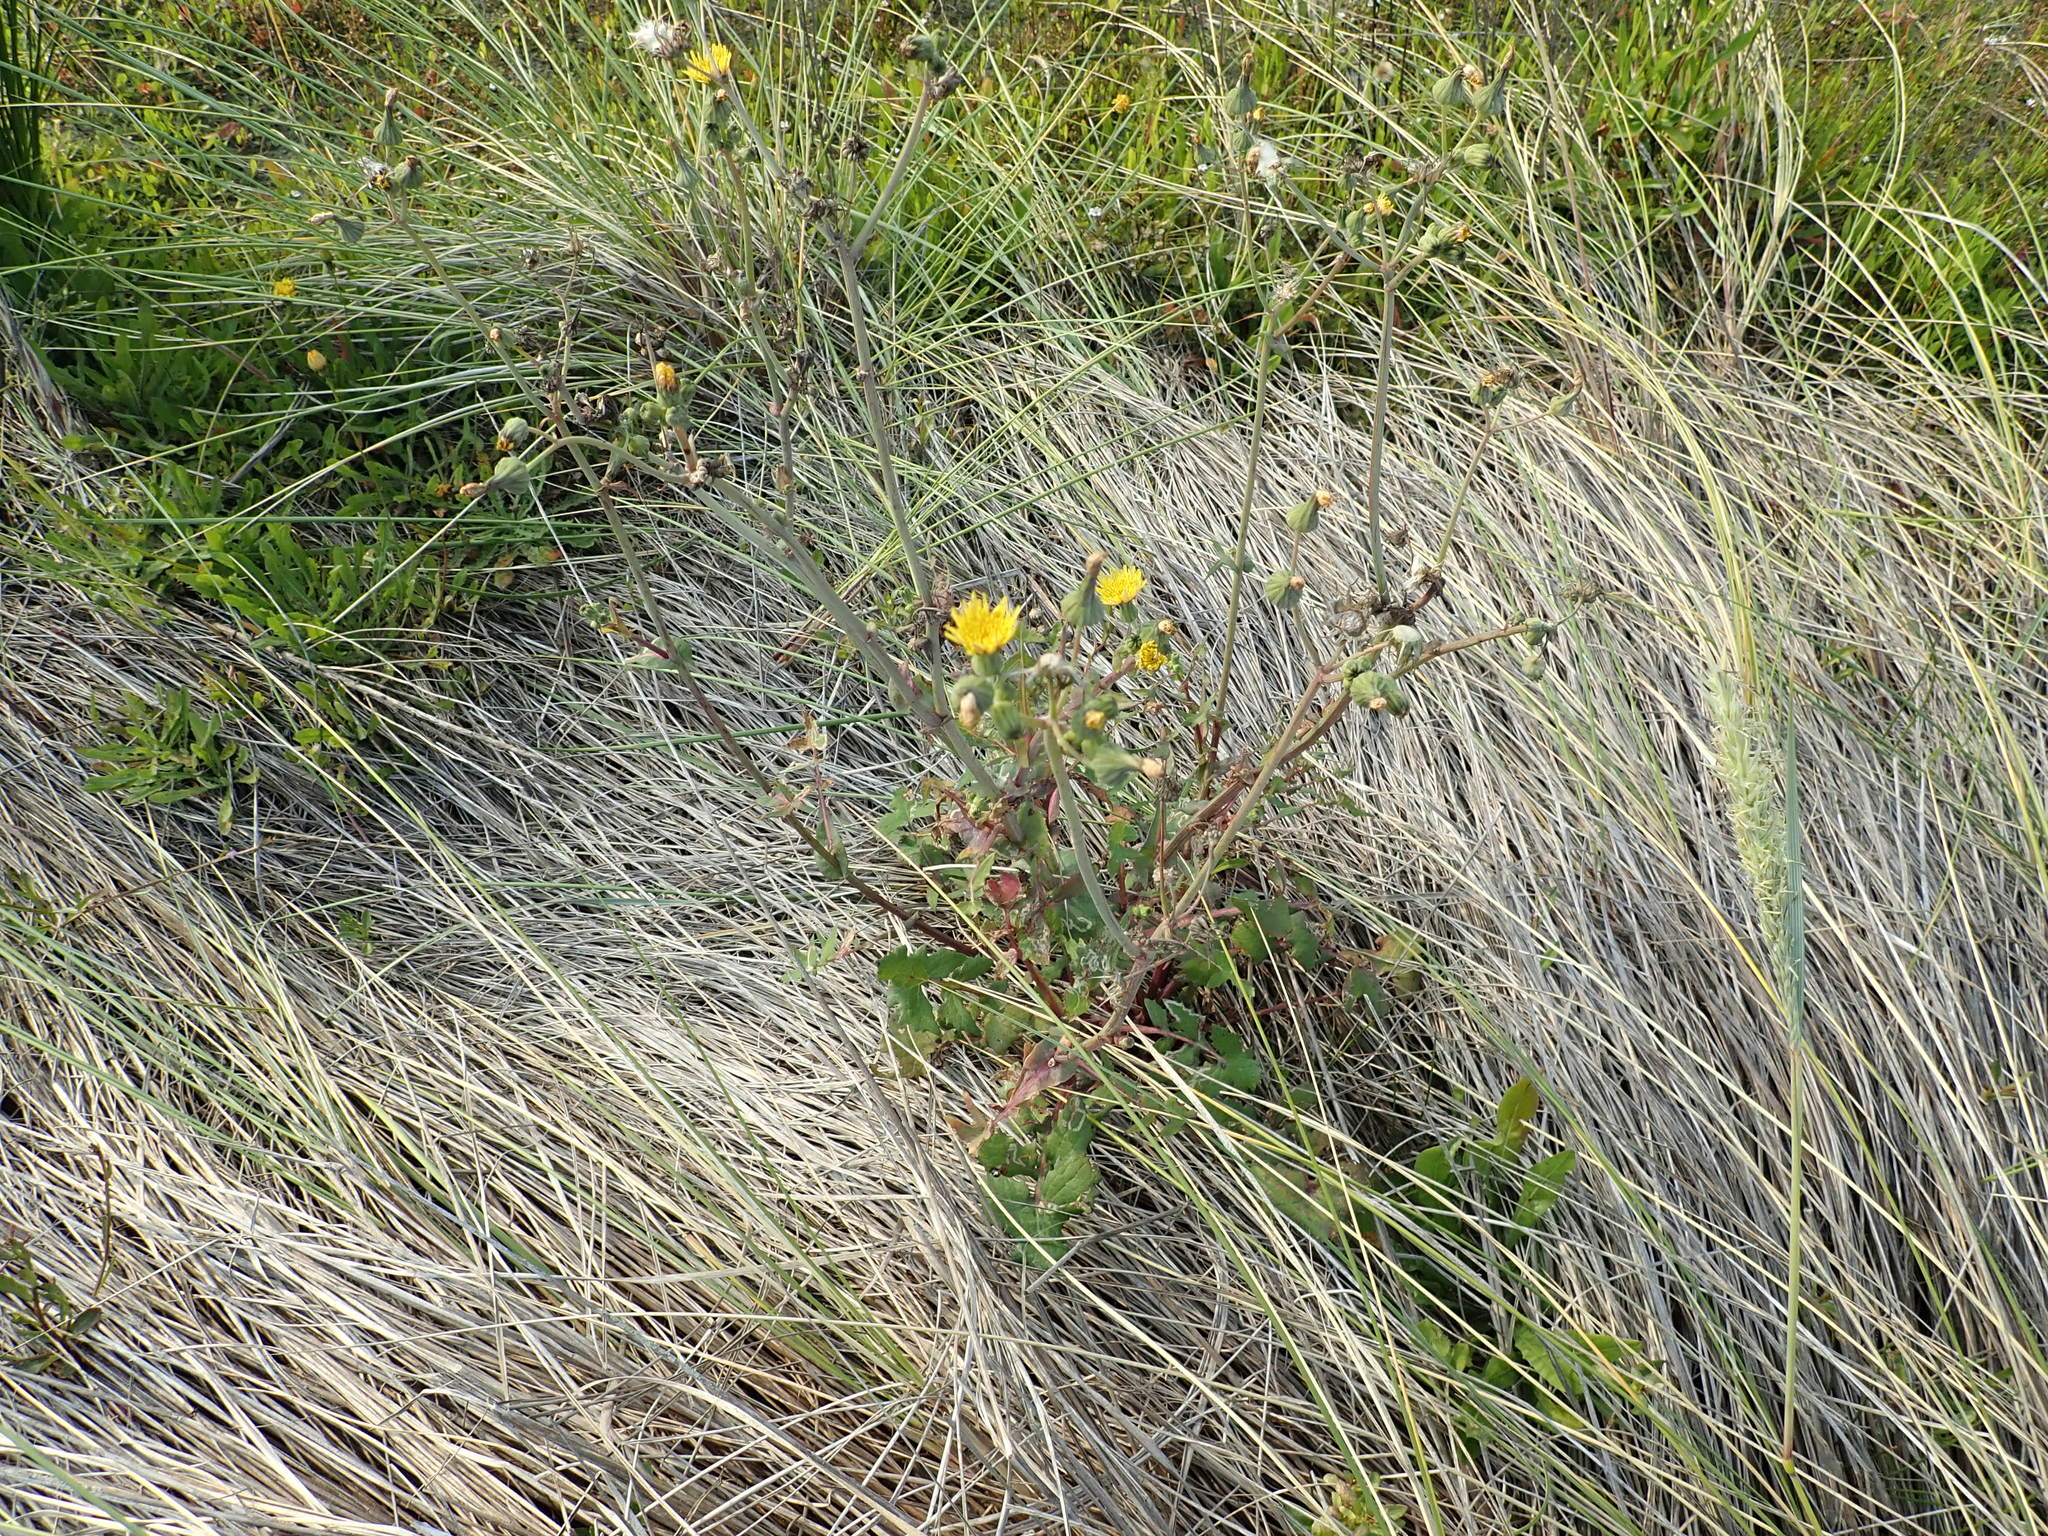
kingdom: Plantae
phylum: Tracheophyta
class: Magnoliopsida
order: Asterales
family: Asteraceae
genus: Sonchus
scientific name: Sonchus oleraceus
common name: Common sowthistle
